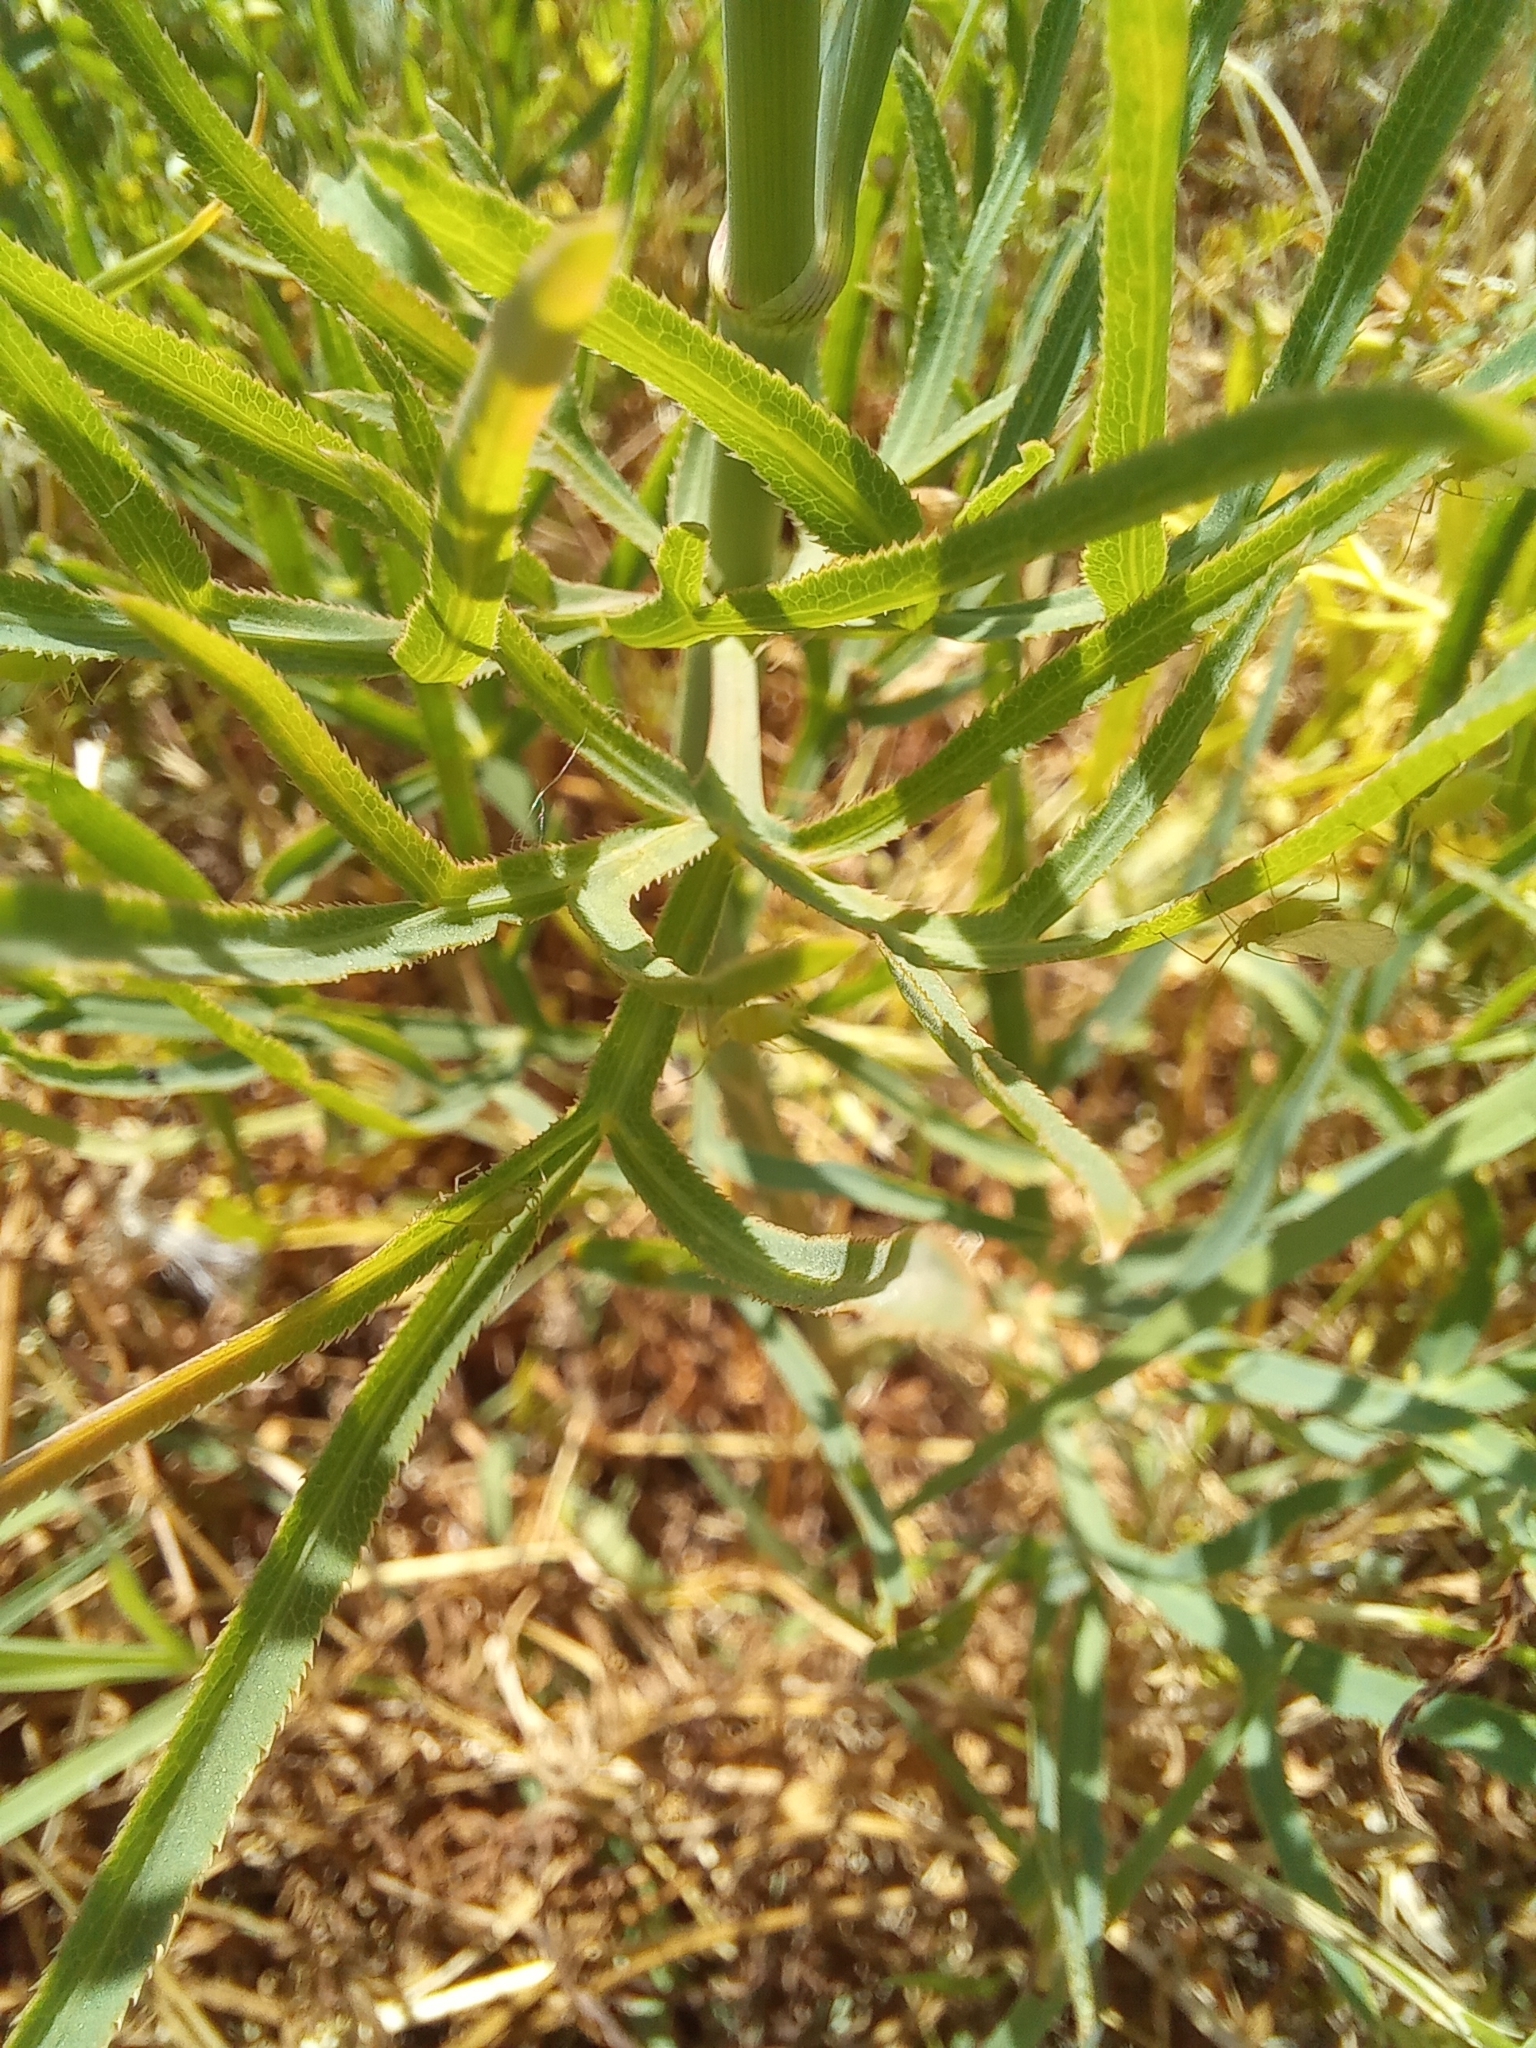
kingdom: Plantae
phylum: Tracheophyta
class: Magnoliopsida
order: Apiales
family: Apiaceae
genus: Falcaria
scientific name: Falcaria vulgaris
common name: Longleaf
